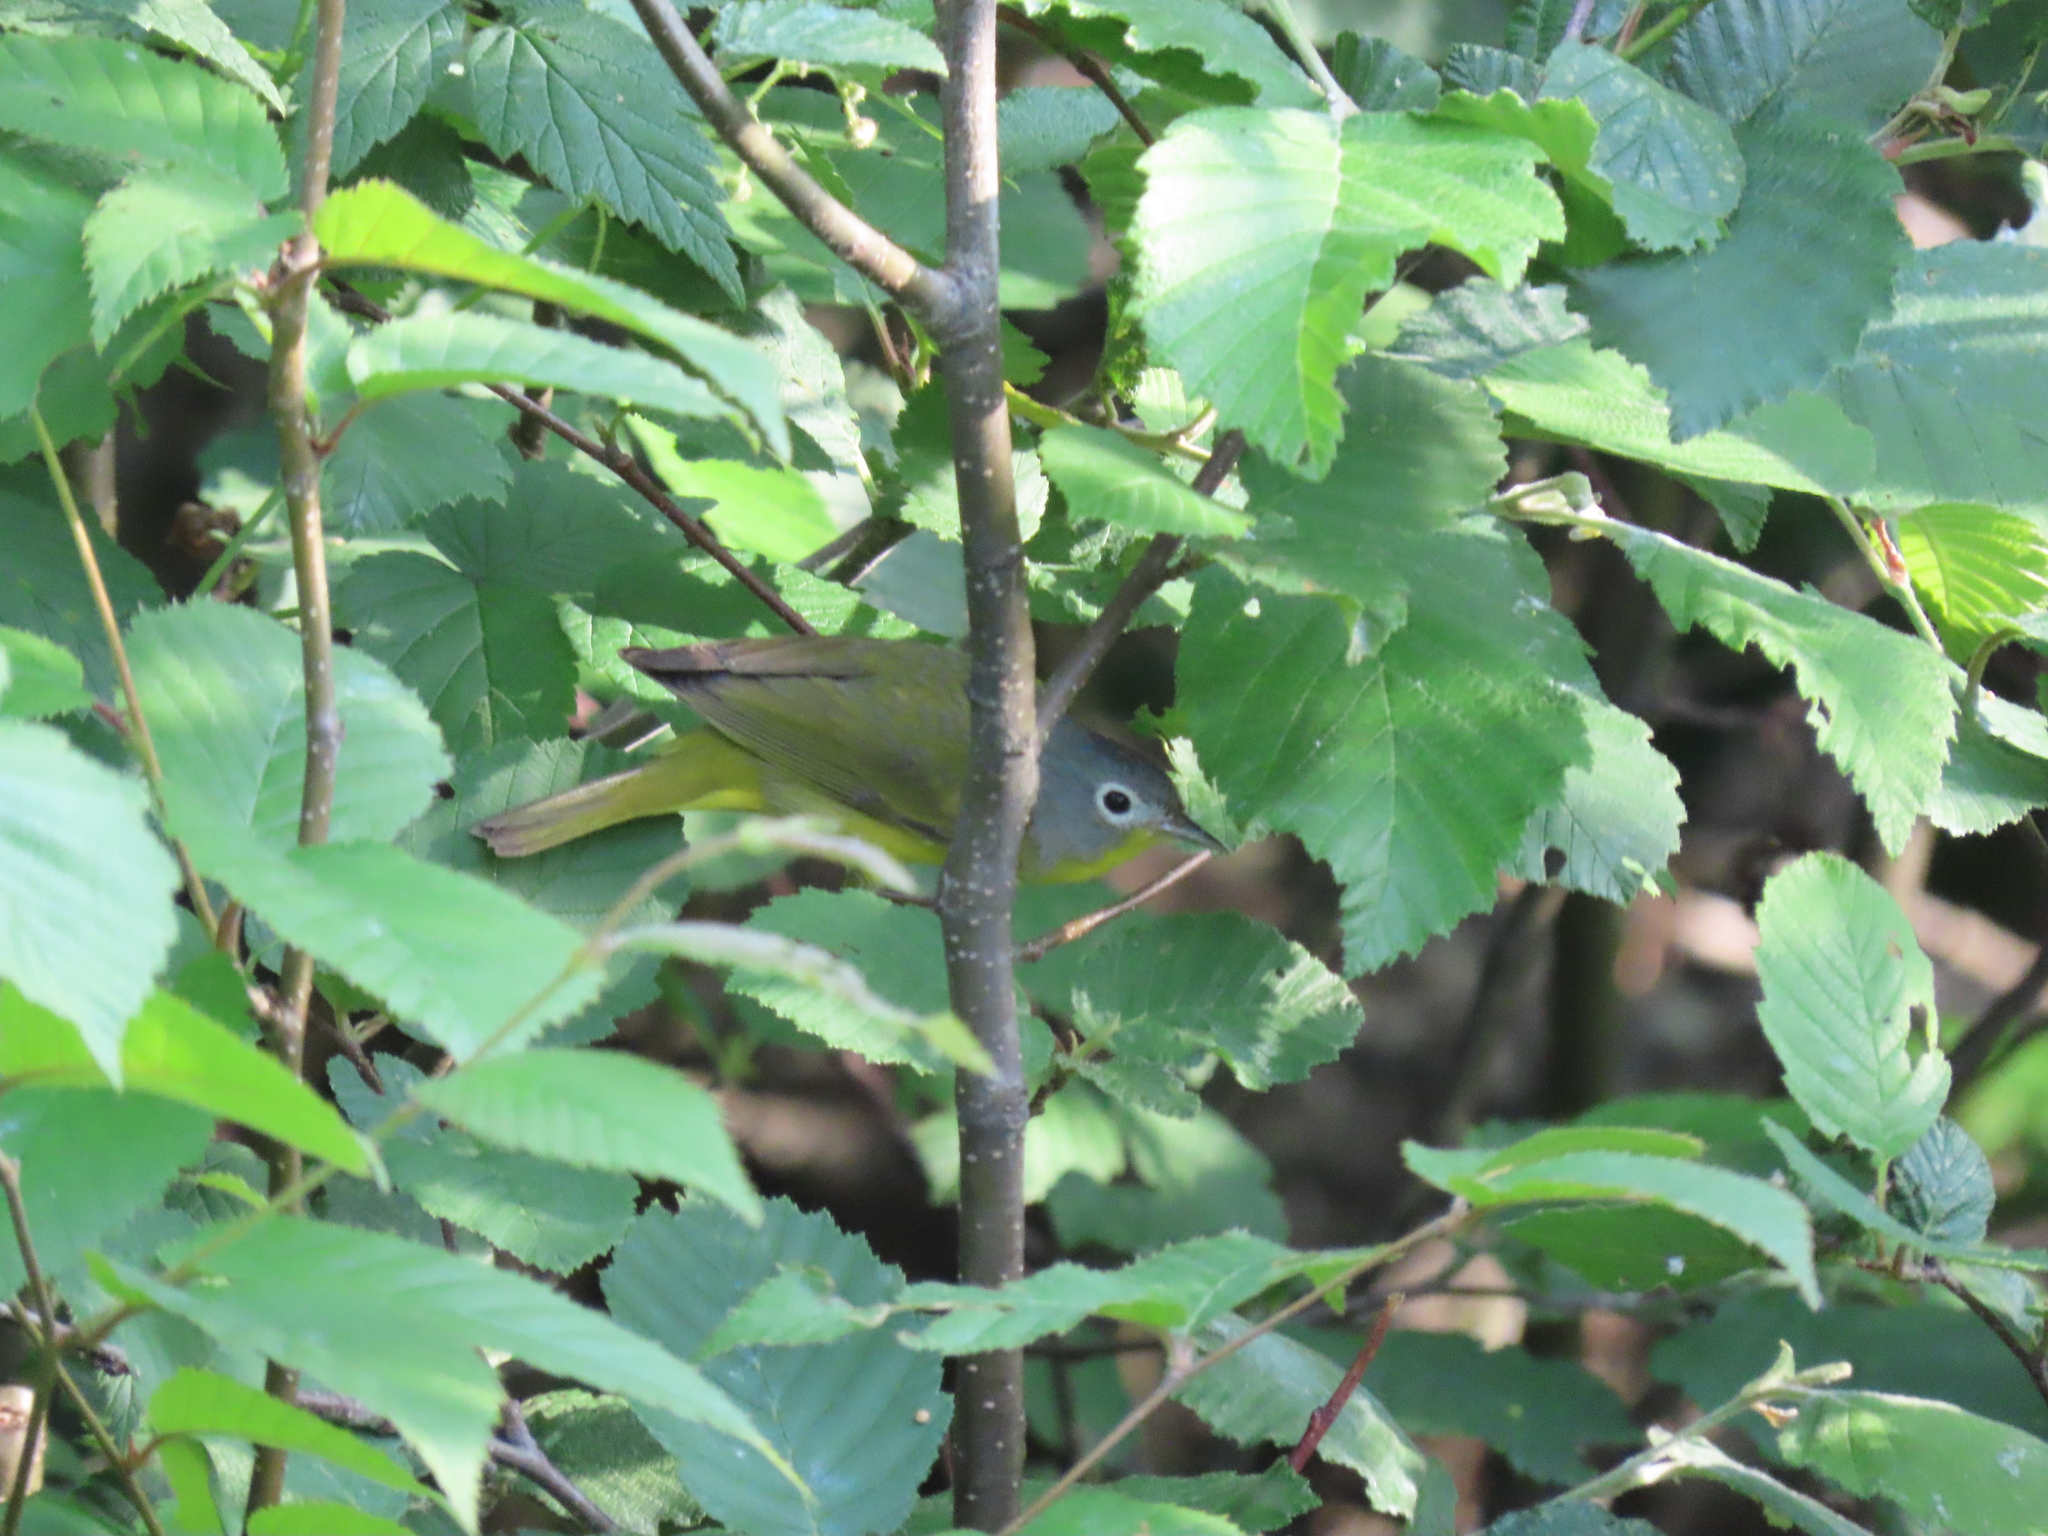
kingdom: Animalia
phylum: Chordata
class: Aves
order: Passeriformes
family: Parulidae
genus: Leiothlypis
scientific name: Leiothlypis ruficapilla
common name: Nashville warbler
